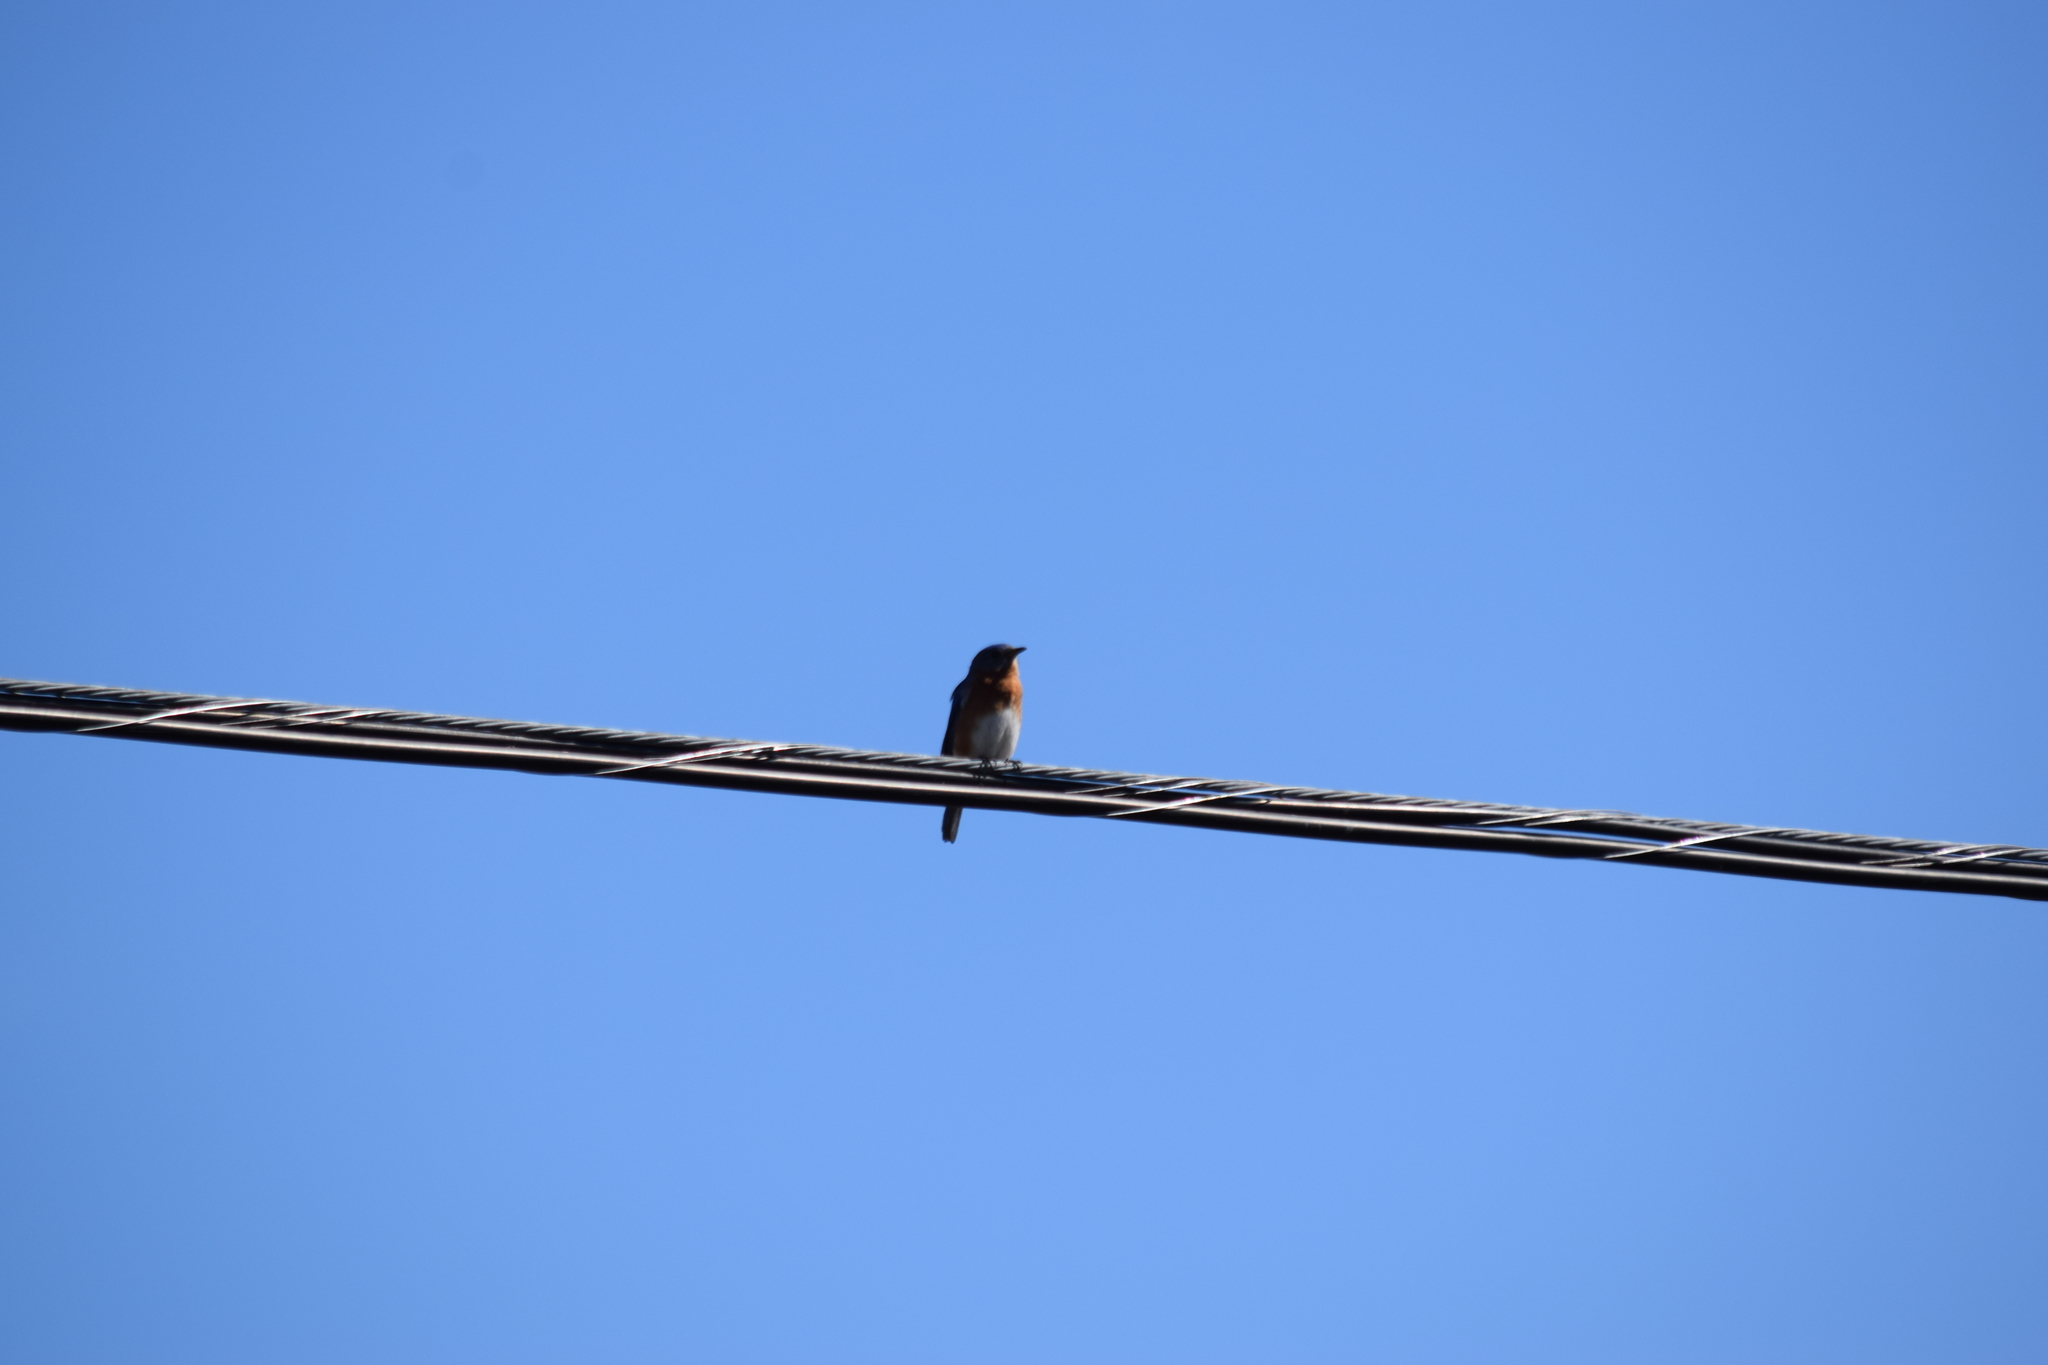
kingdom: Animalia
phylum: Chordata
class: Aves
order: Passeriformes
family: Turdidae
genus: Sialia
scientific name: Sialia sialis
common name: Eastern bluebird
